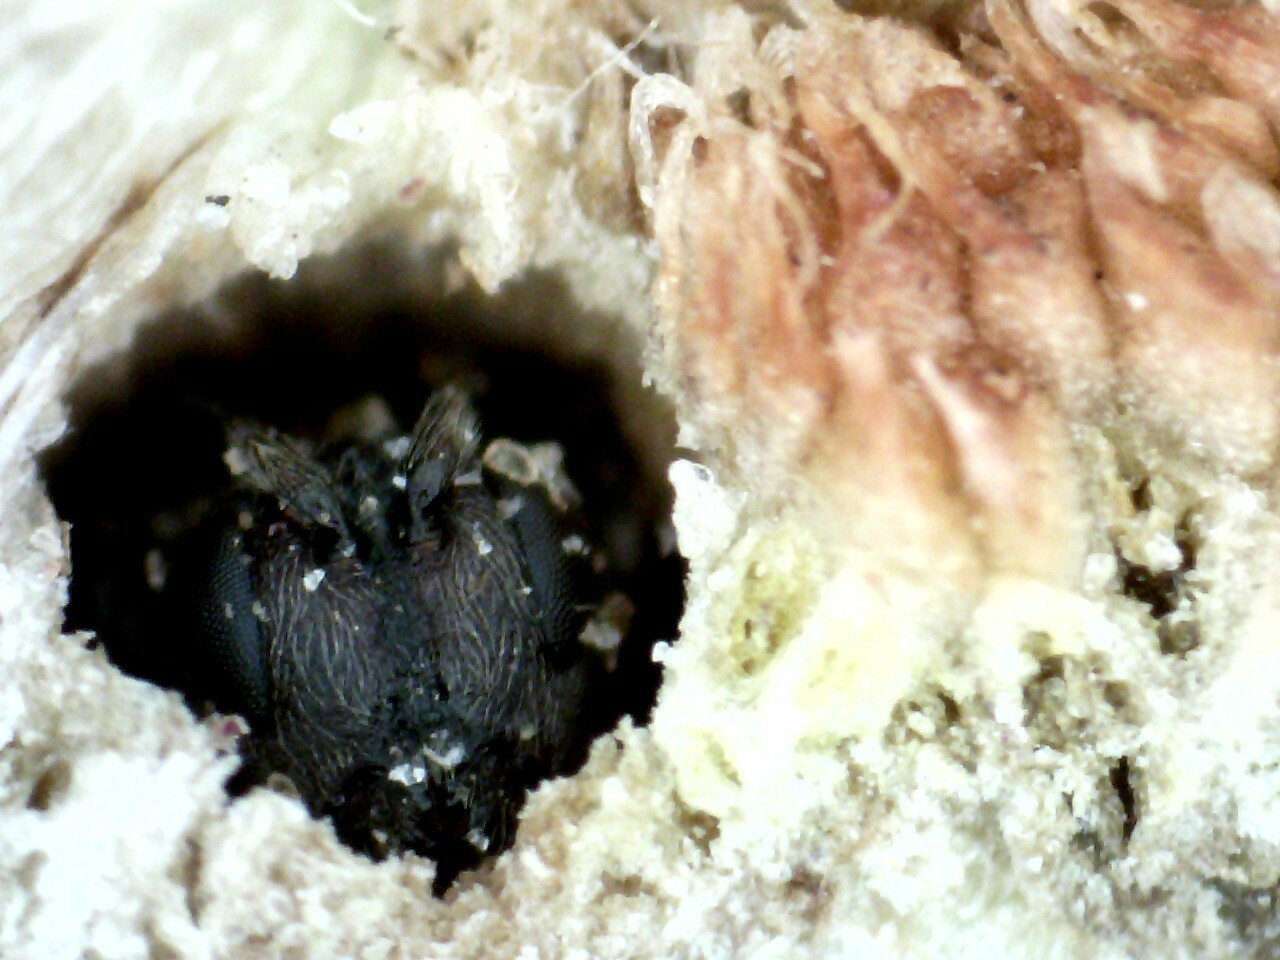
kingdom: Animalia
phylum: Arthropoda
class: Insecta
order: Hymenoptera
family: Cynipidae
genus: Acraspis
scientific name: Acraspis erinacei
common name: Hedgehog gall wasp
